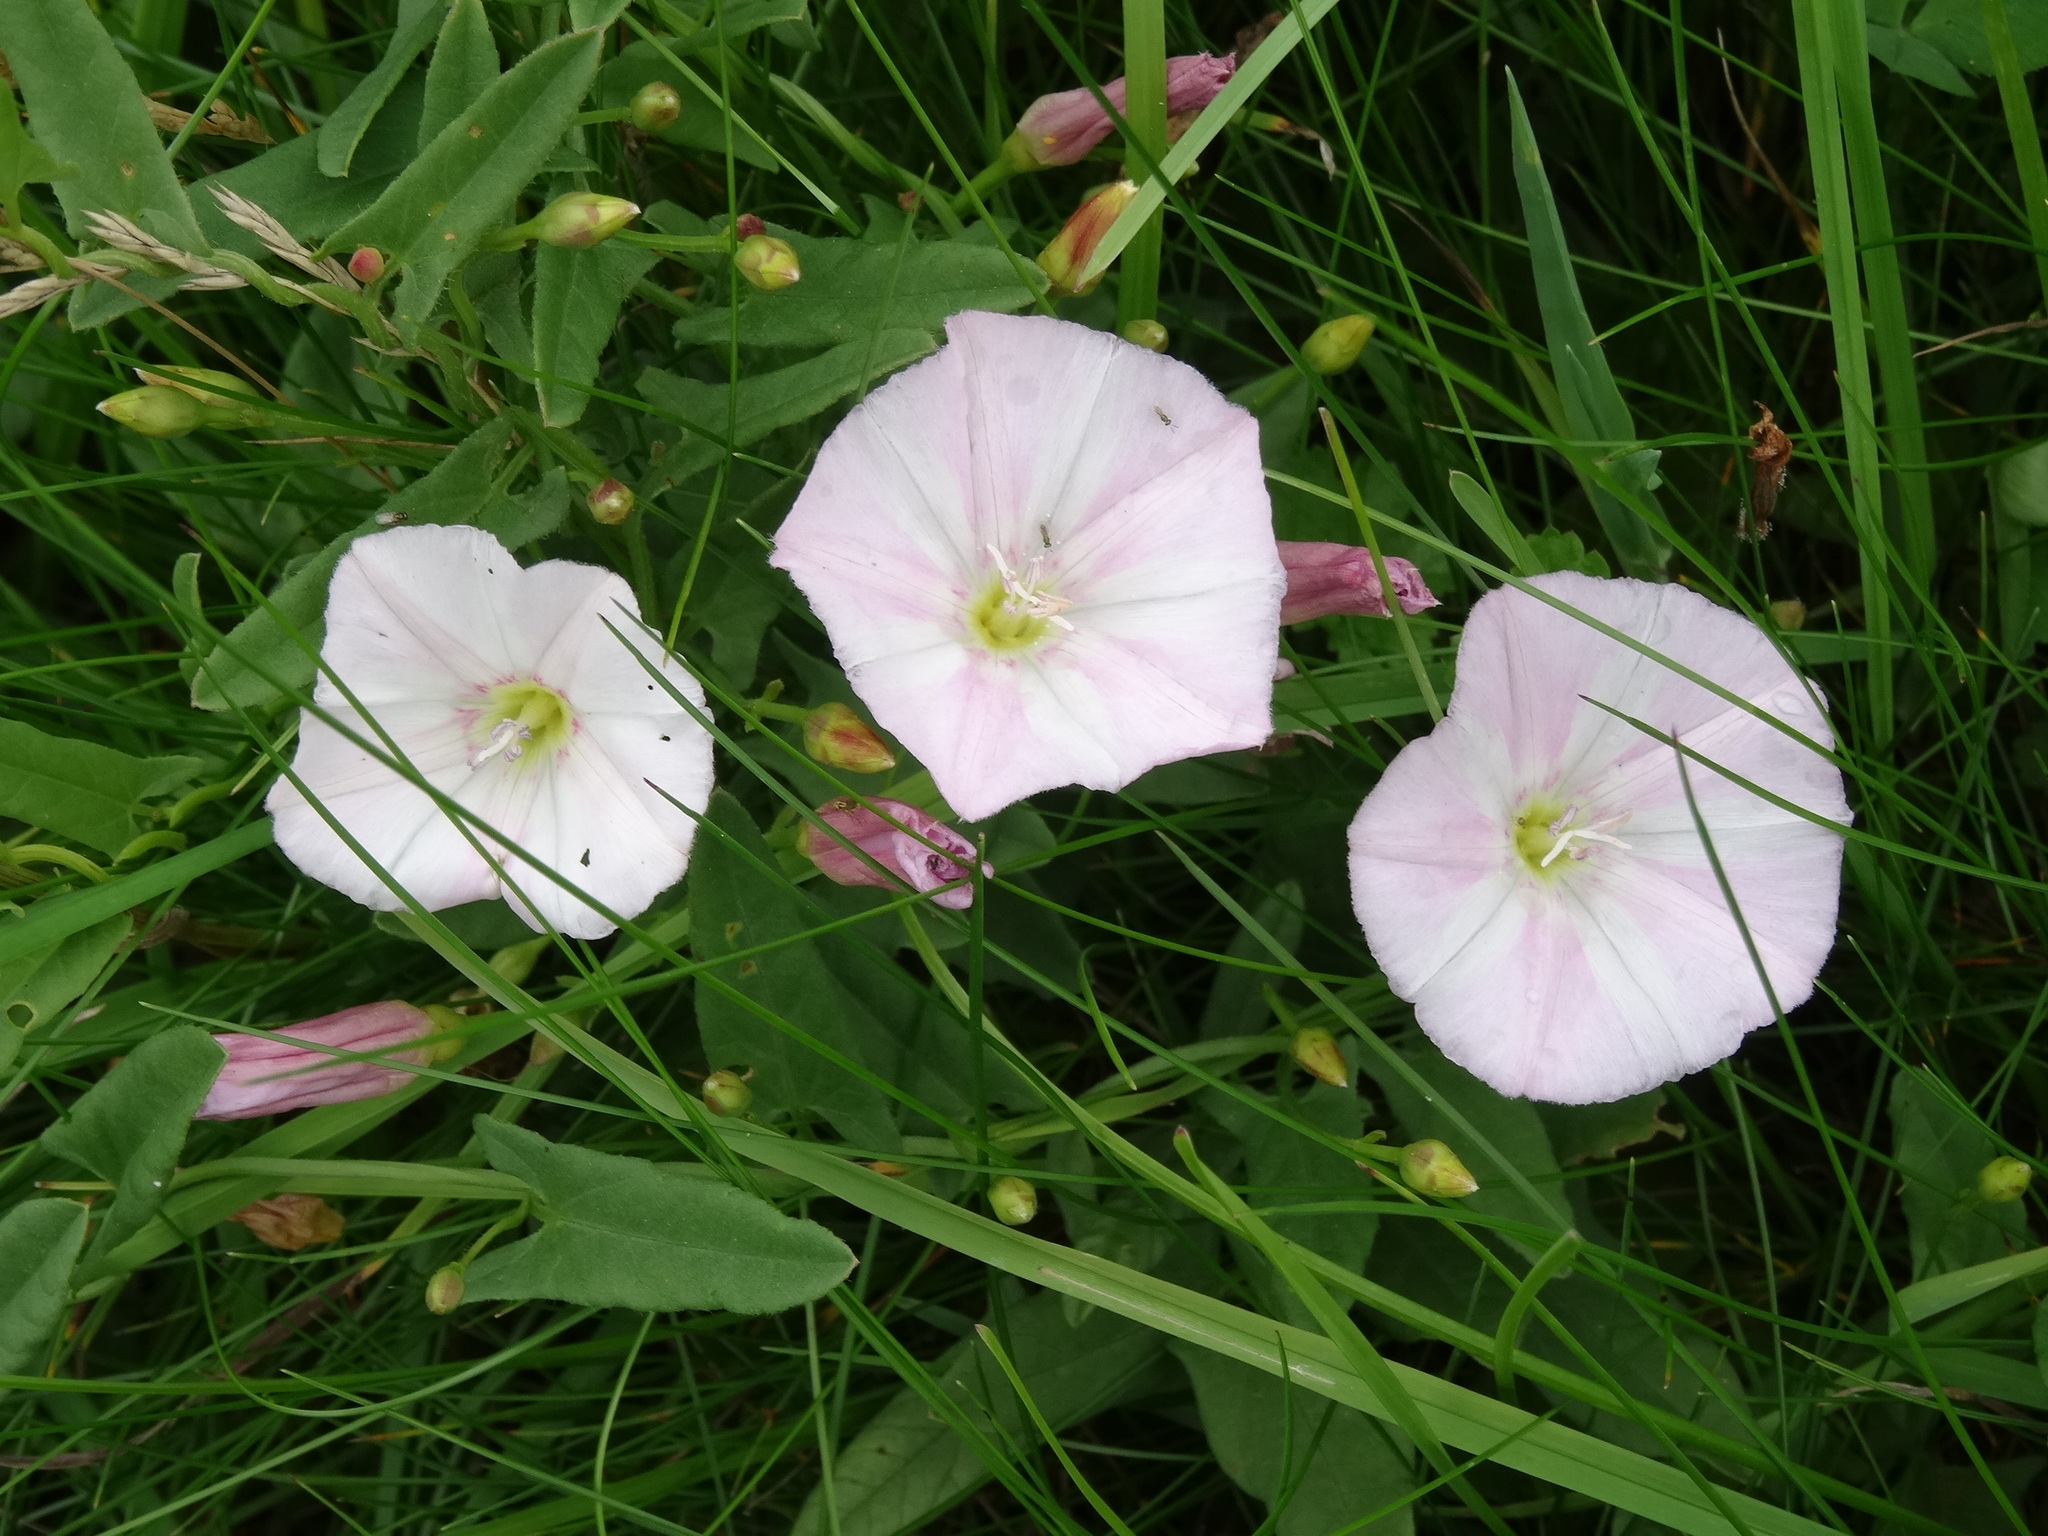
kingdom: Plantae
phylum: Tracheophyta
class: Magnoliopsida
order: Solanales
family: Convolvulaceae
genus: Convolvulus
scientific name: Convolvulus arvensis
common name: Field bindweed
